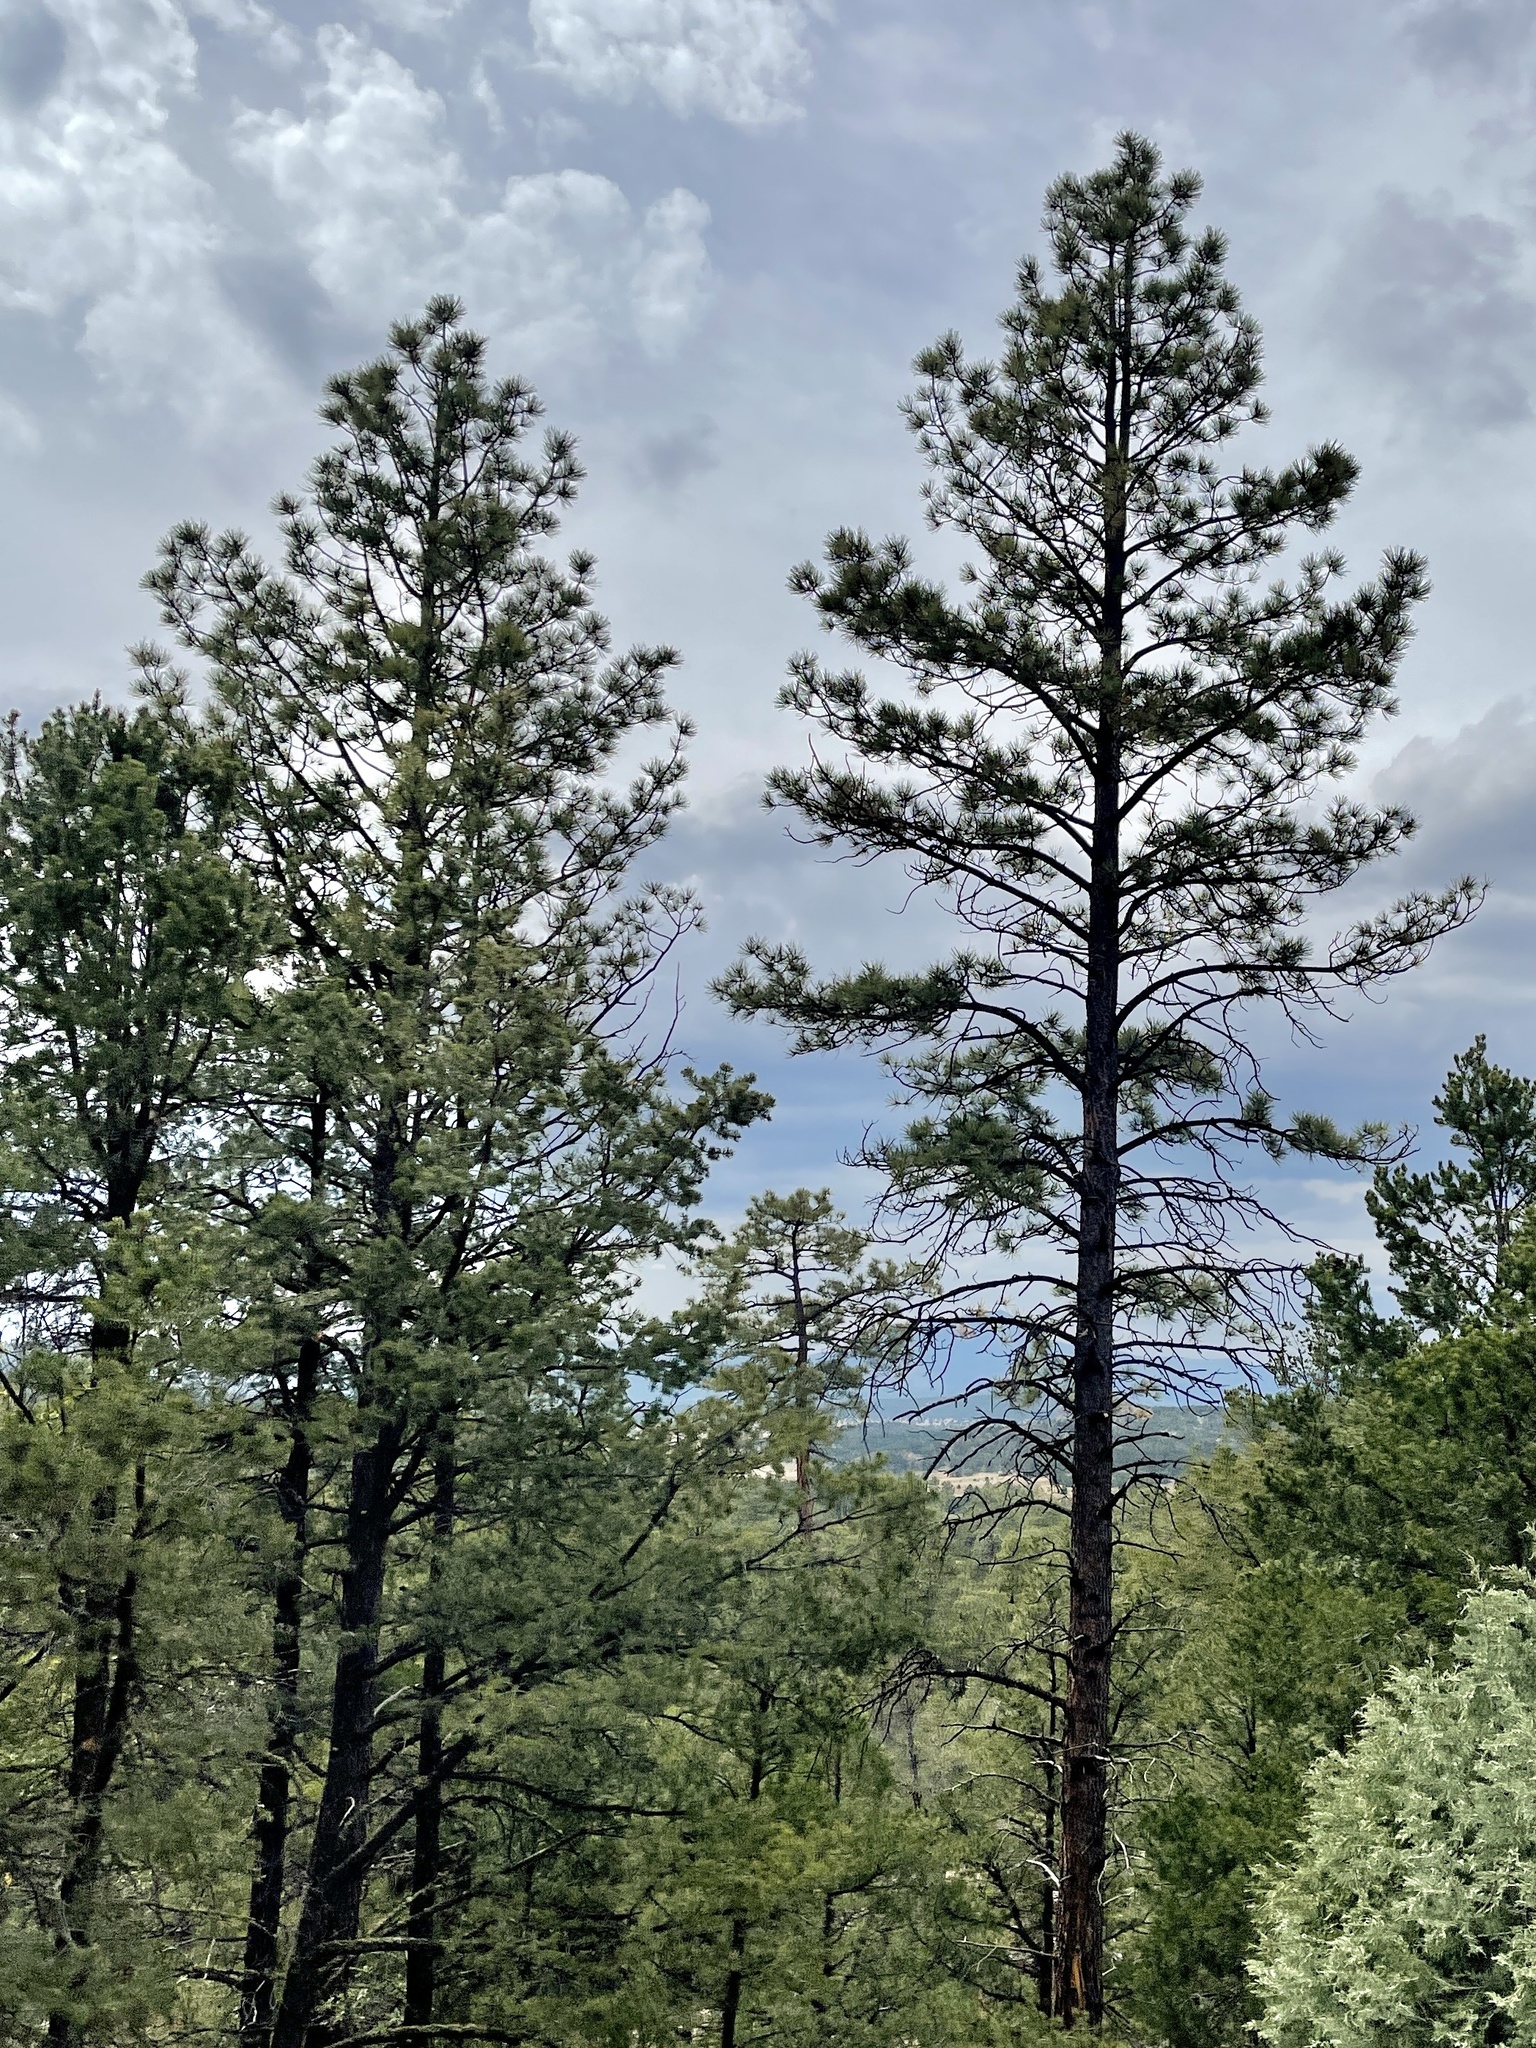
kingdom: Plantae
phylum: Tracheophyta
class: Pinopsida
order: Pinales
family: Pinaceae
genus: Pinus
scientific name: Pinus ponderosa
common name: Western yellow-pine
